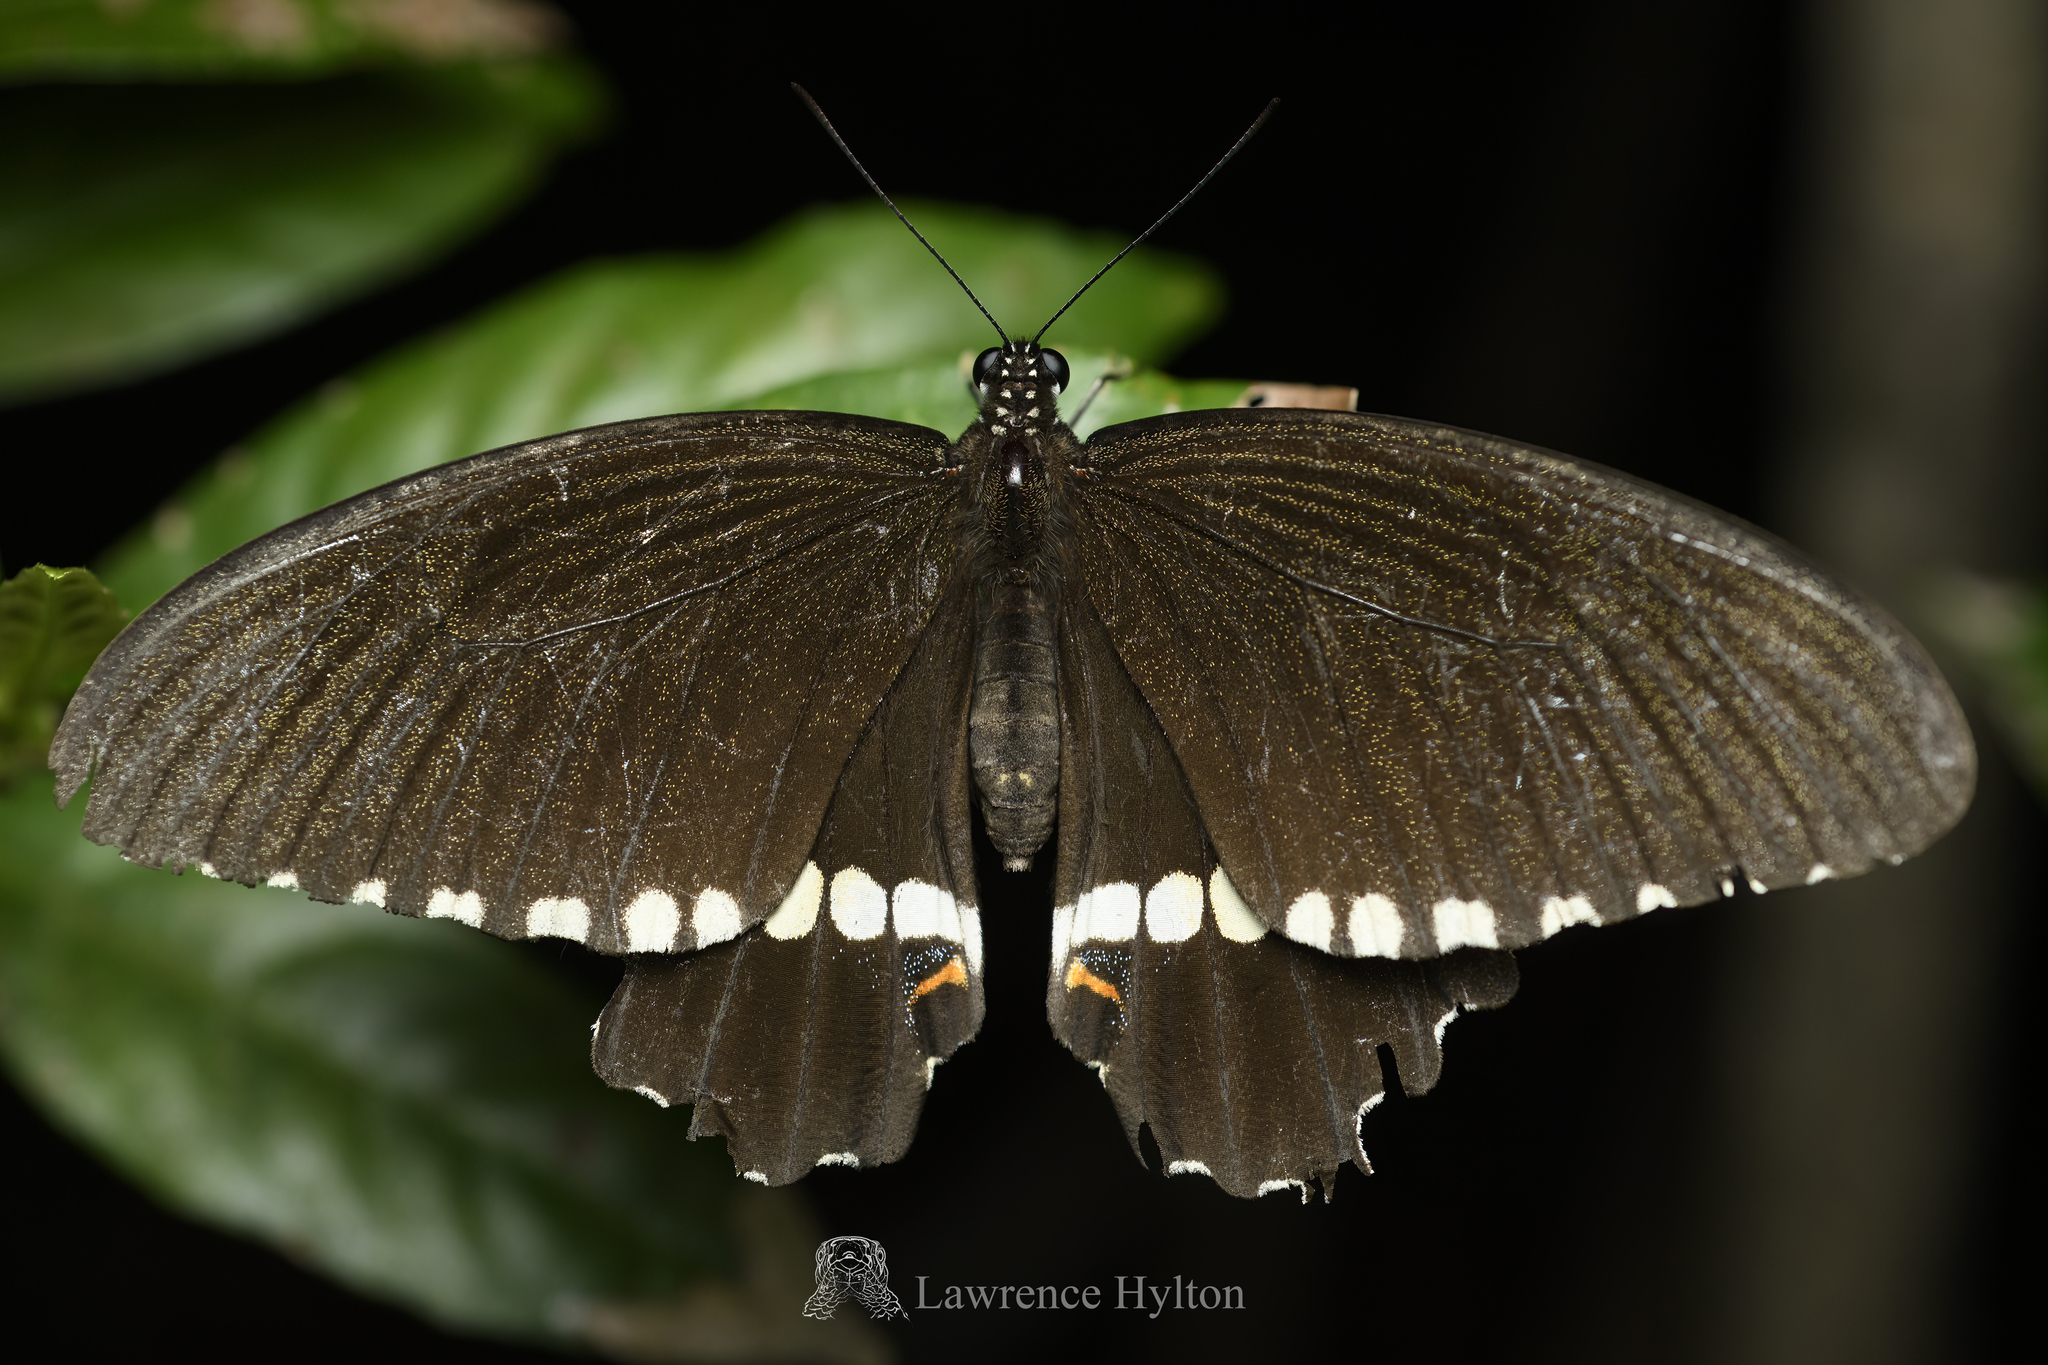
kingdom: Animalia
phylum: Arthropoda
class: Insecta
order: Lepidoptera
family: Papilionidae
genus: Papilio
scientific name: Papilio polytes
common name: Common mormon
